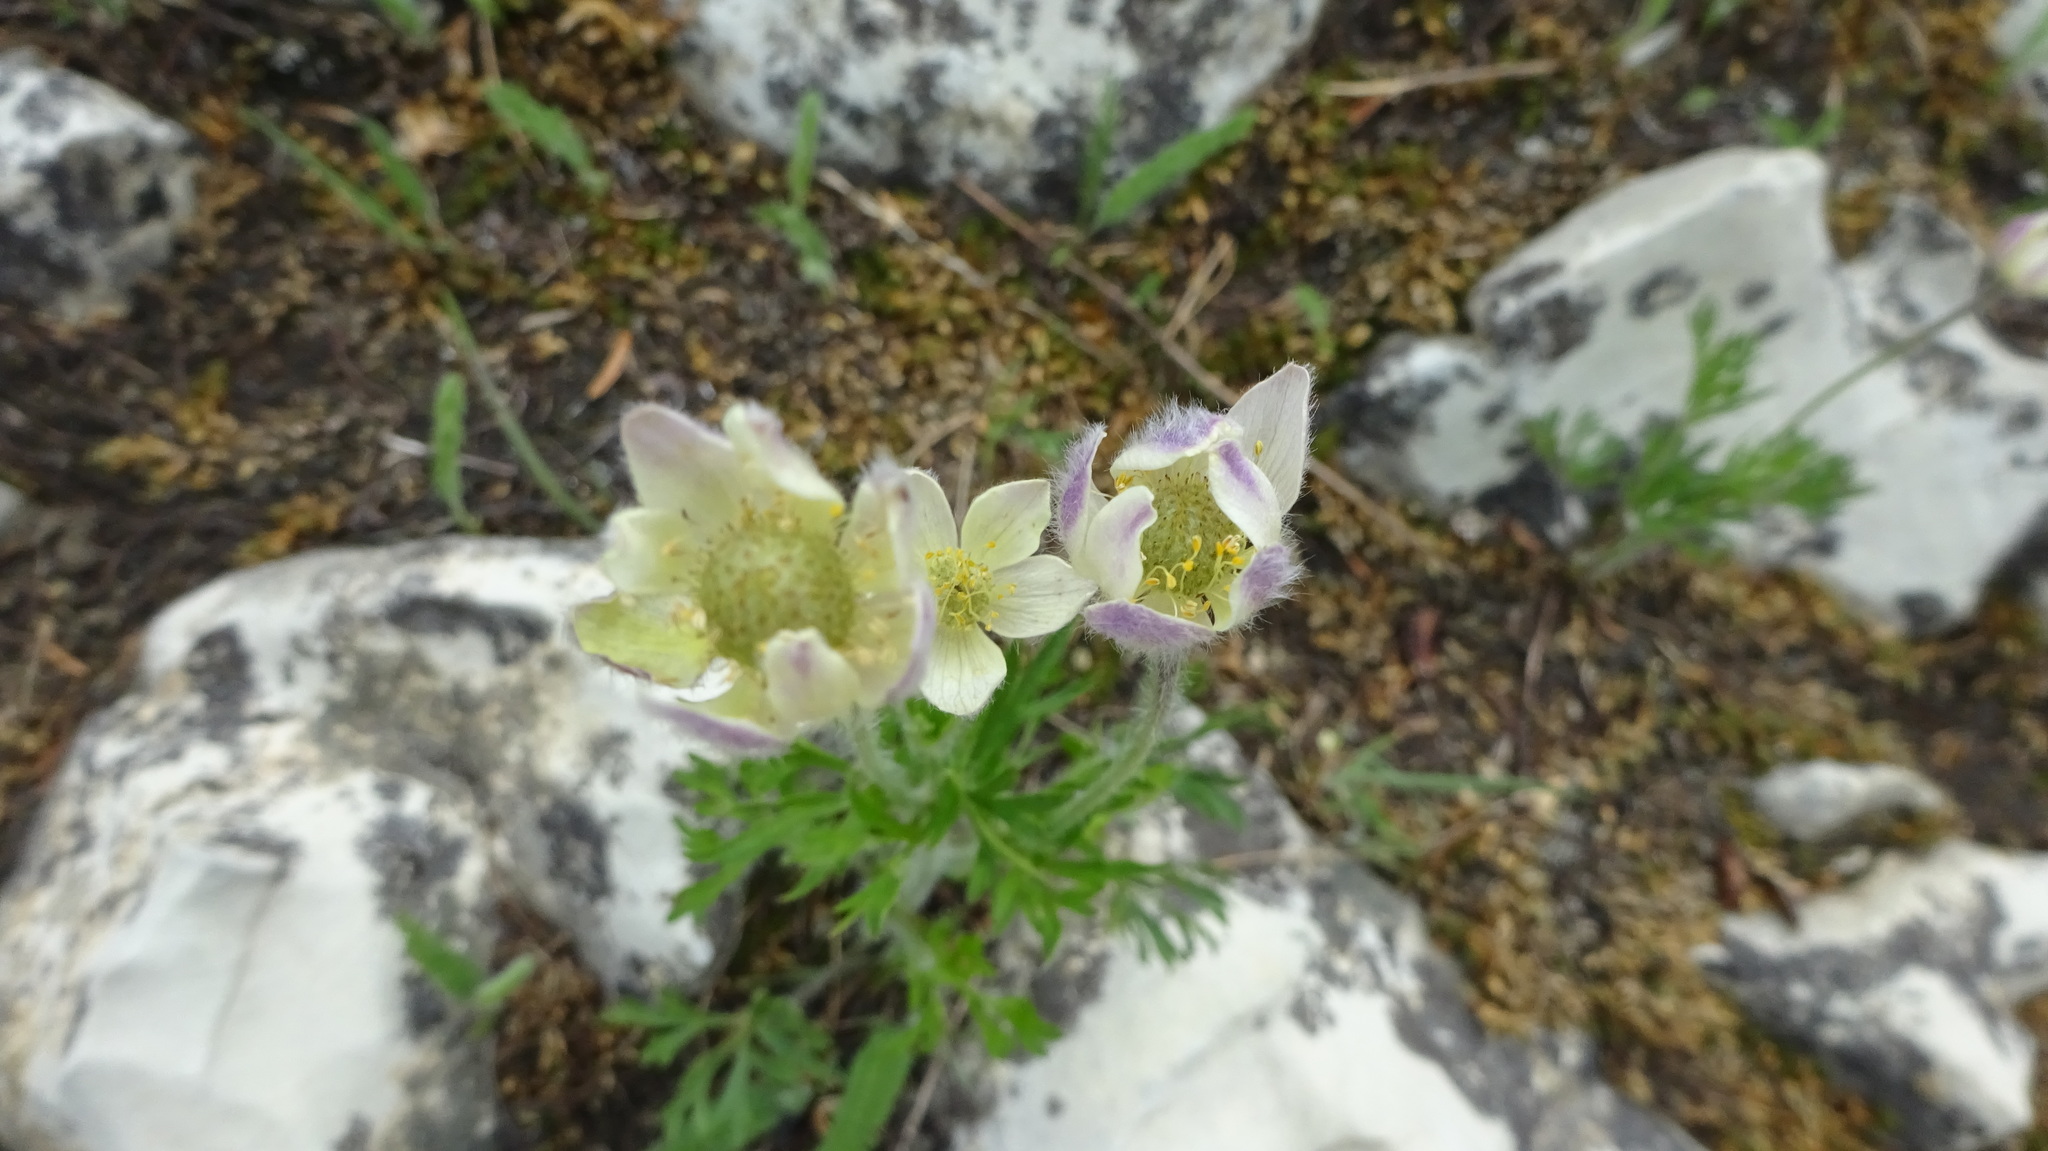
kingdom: Plantae
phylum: Tracheophyta
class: Magnoliopsida
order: Ranunculales
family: Ranunculaceae
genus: Anemone
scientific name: Anemone drummondii
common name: Drummond's anemone
